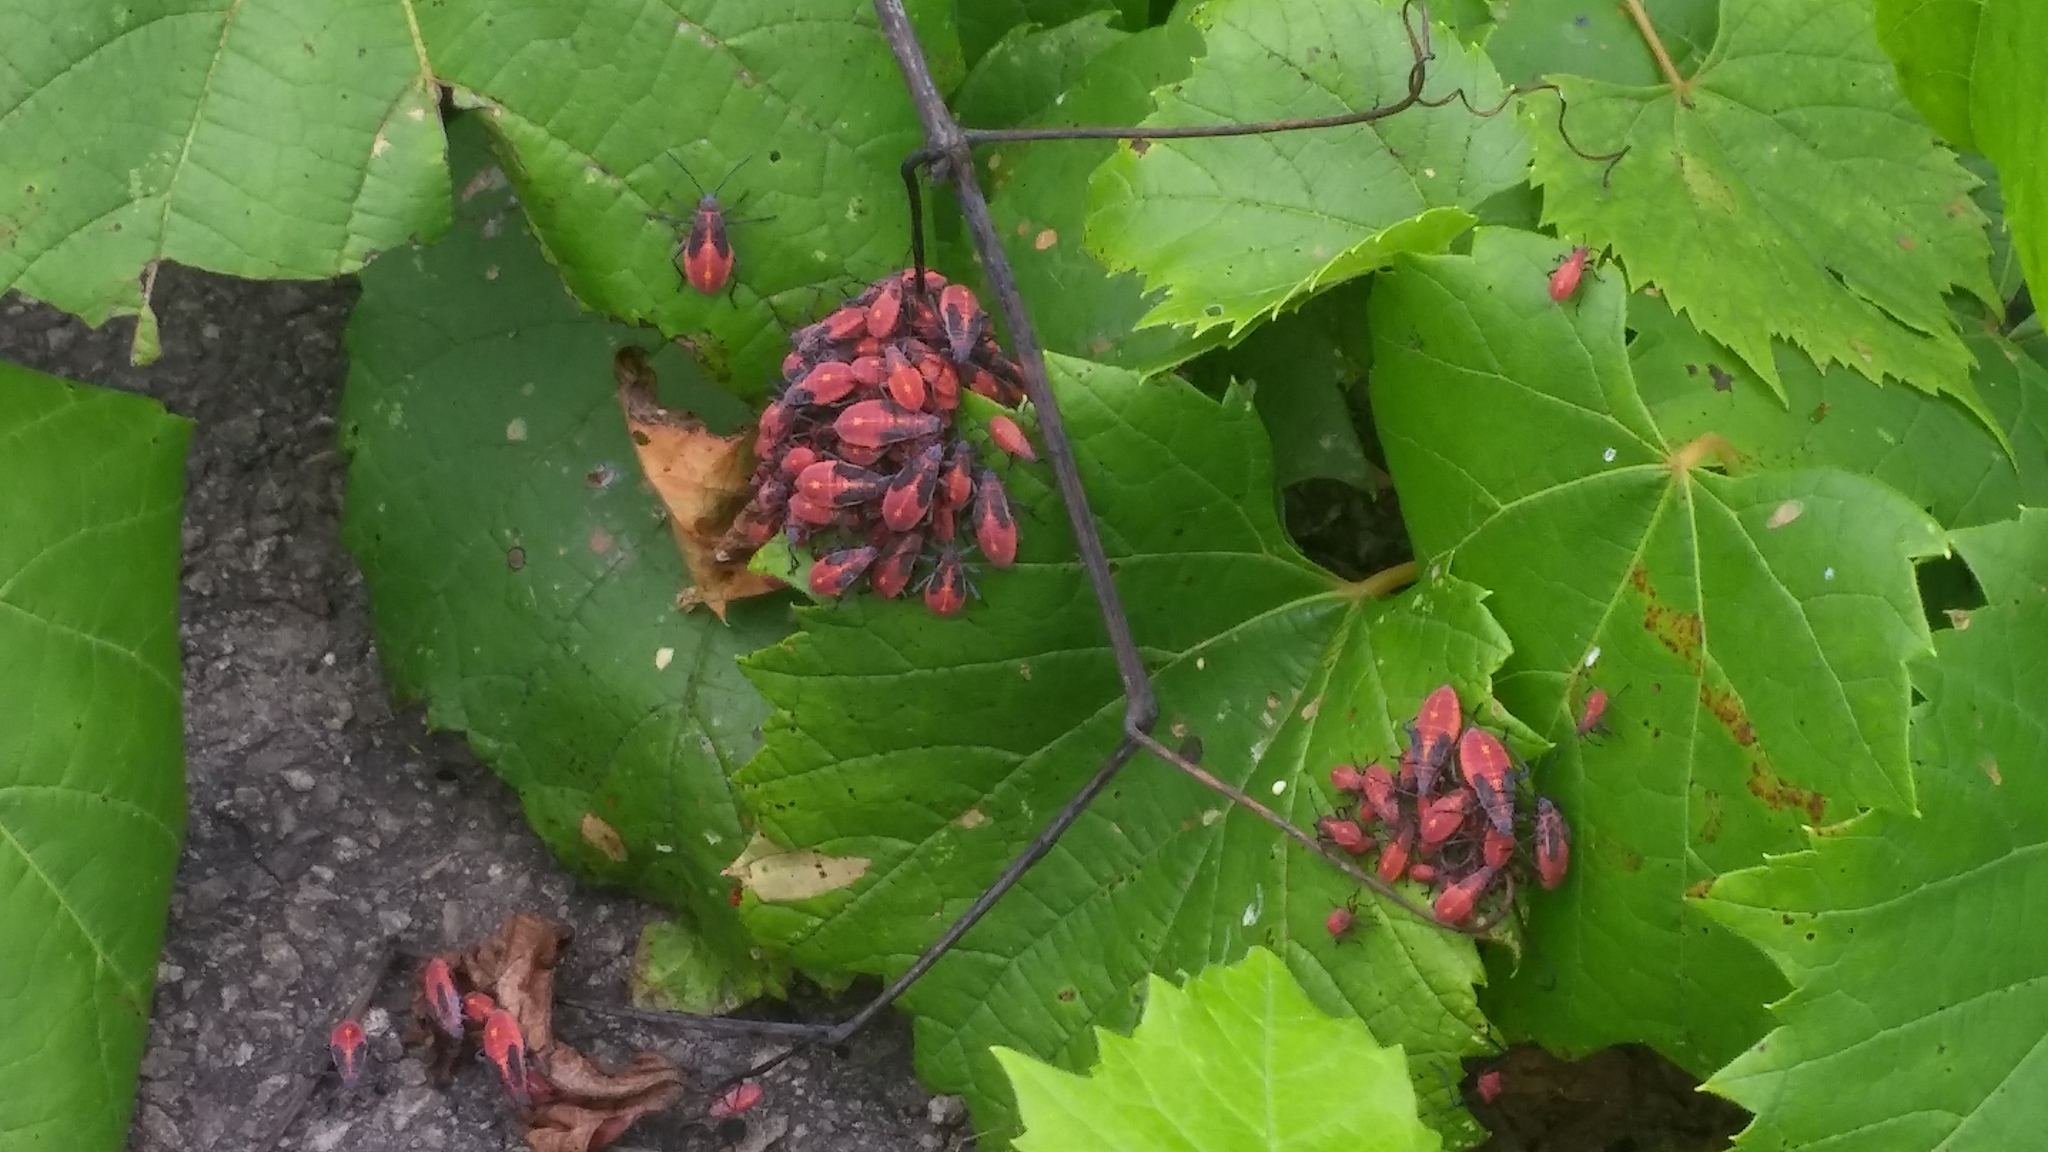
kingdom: Animalia
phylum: Arthropoda
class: Insecta
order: Hemiptera
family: Rhopalidae
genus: Boisea
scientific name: Boisea trivittata
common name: Boxelder bug
